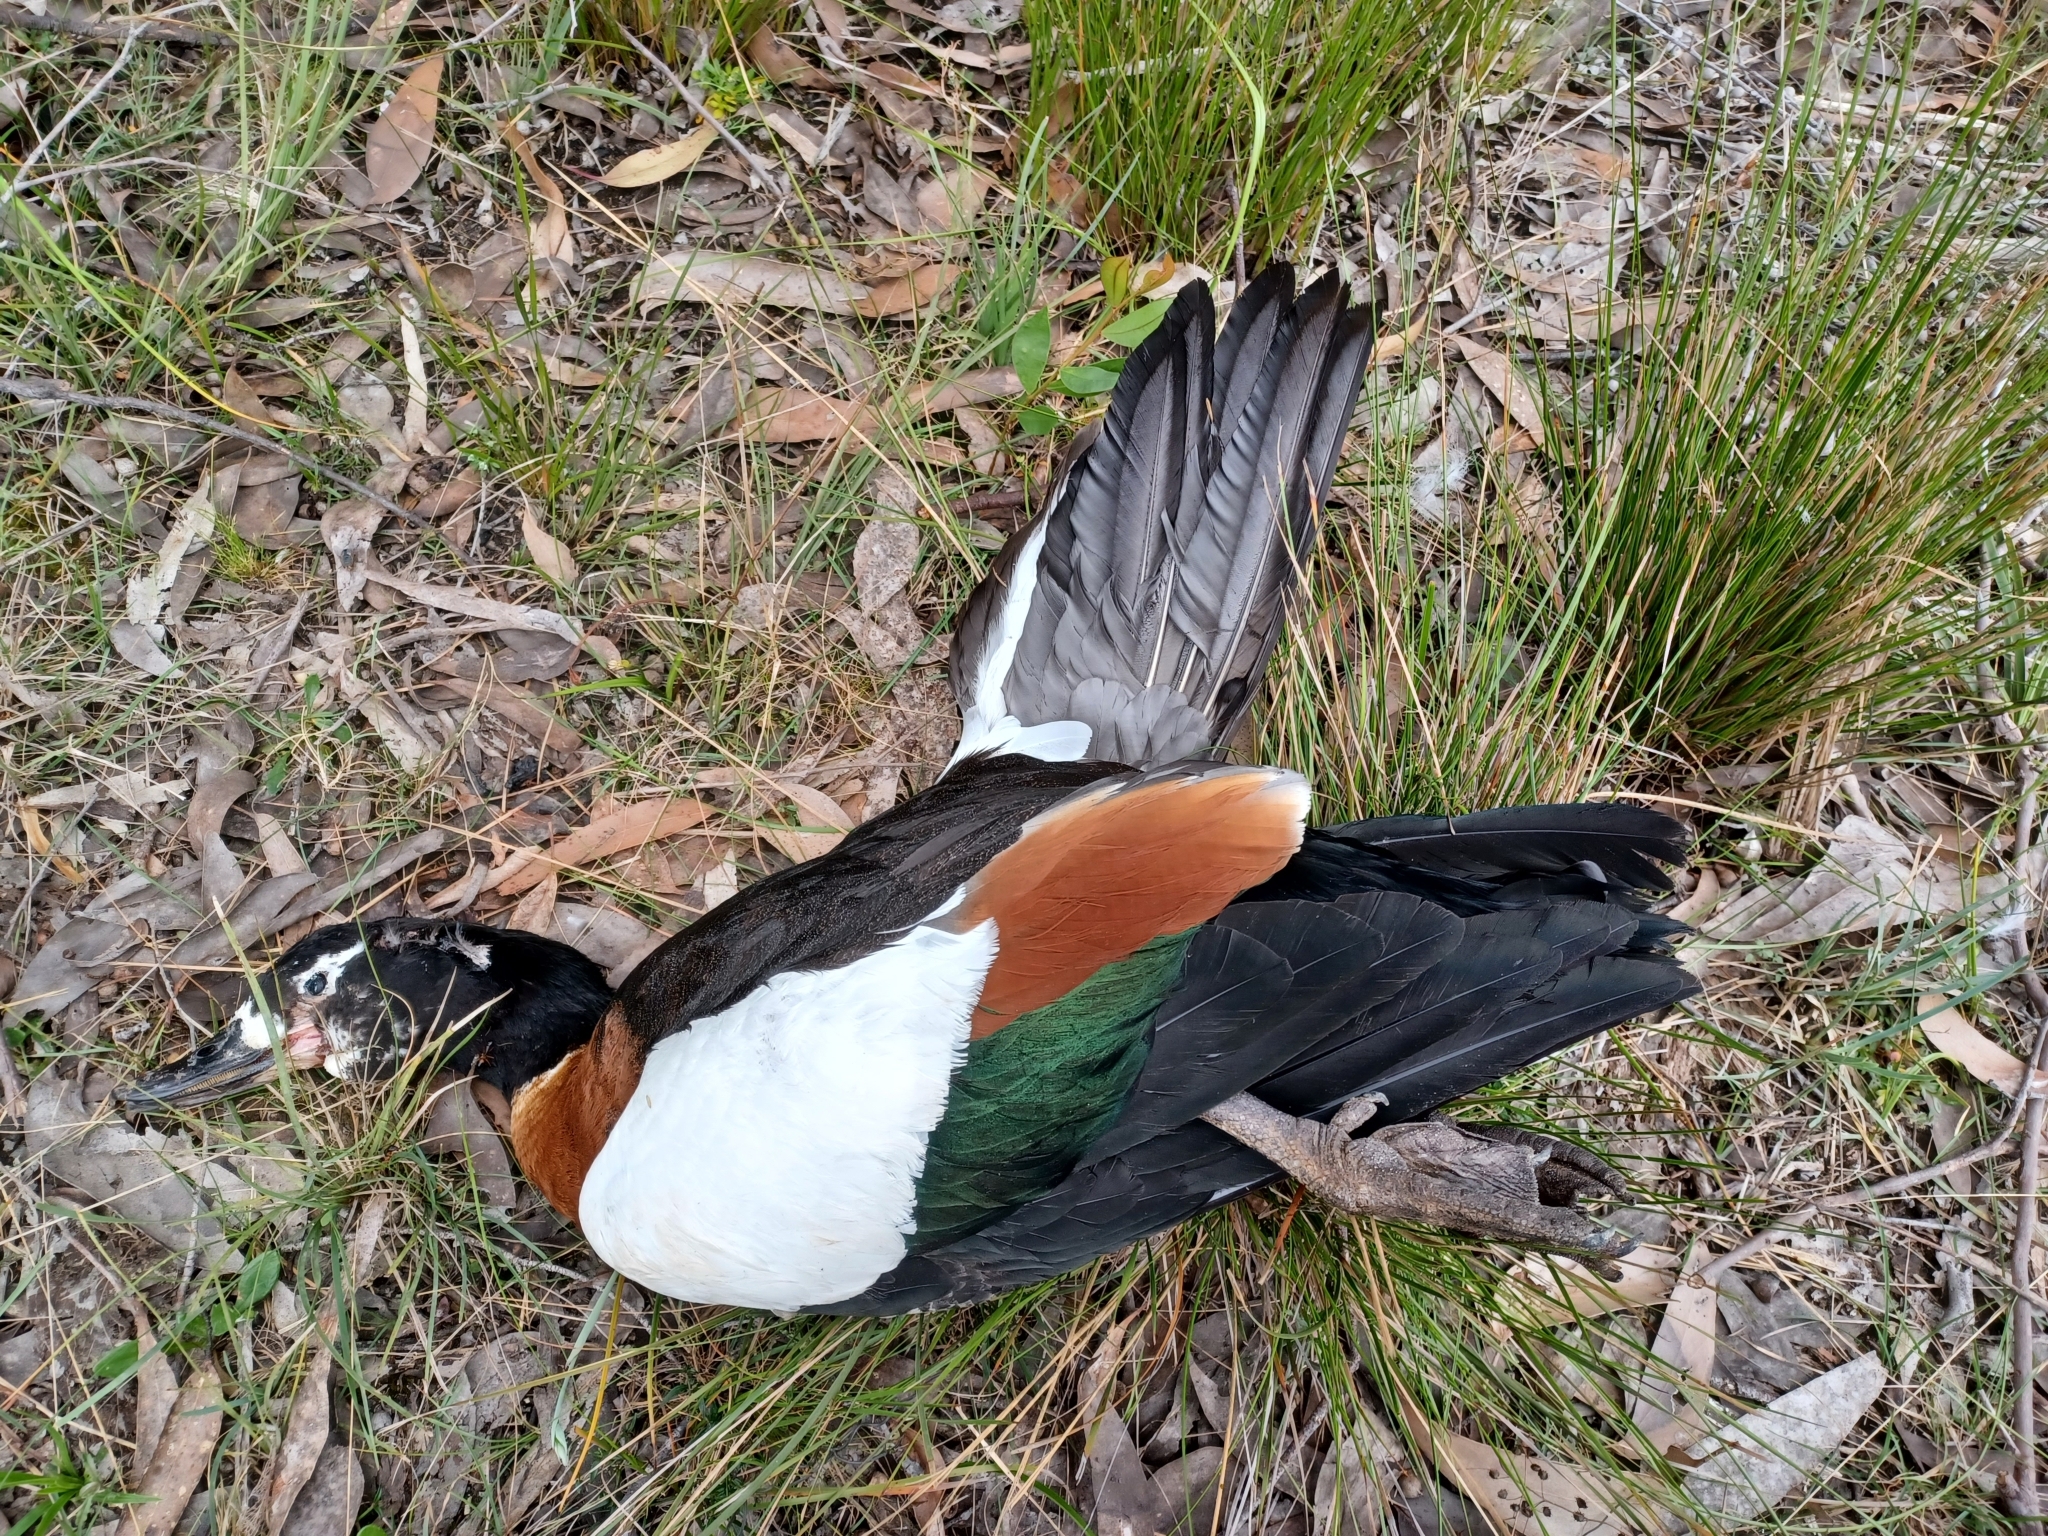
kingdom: Animalia
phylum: Chordata
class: Aves
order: Anseriformes
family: Anatidae
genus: Tadorna
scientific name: Tadorna tadornoides
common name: Australian shelduck
